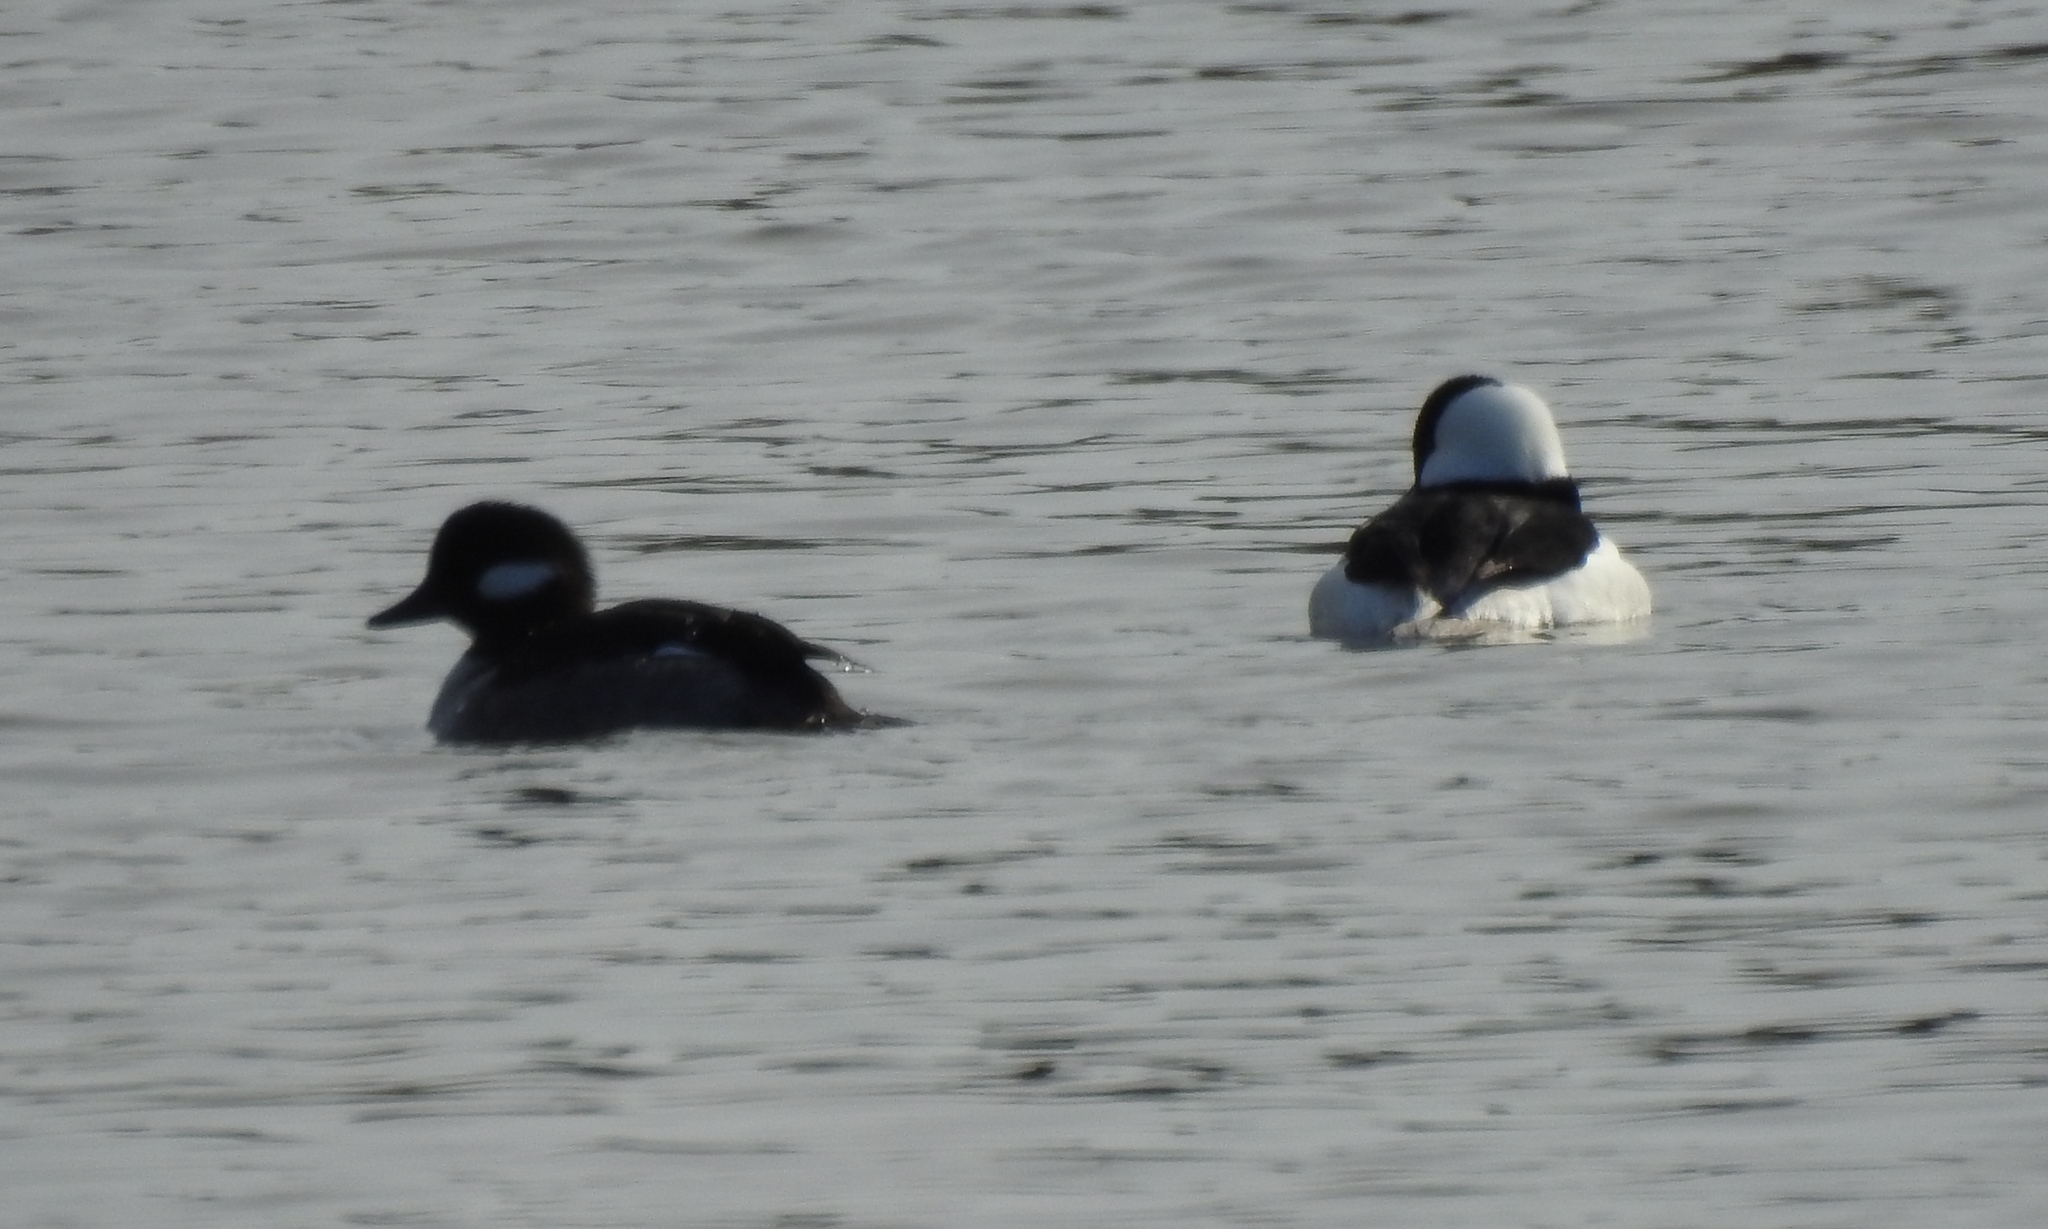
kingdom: Animalia
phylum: Chordata
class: Aves
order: Anseriformes
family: Anatidae
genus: Bucephala
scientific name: Bucephala albeola
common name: Bufflehead
